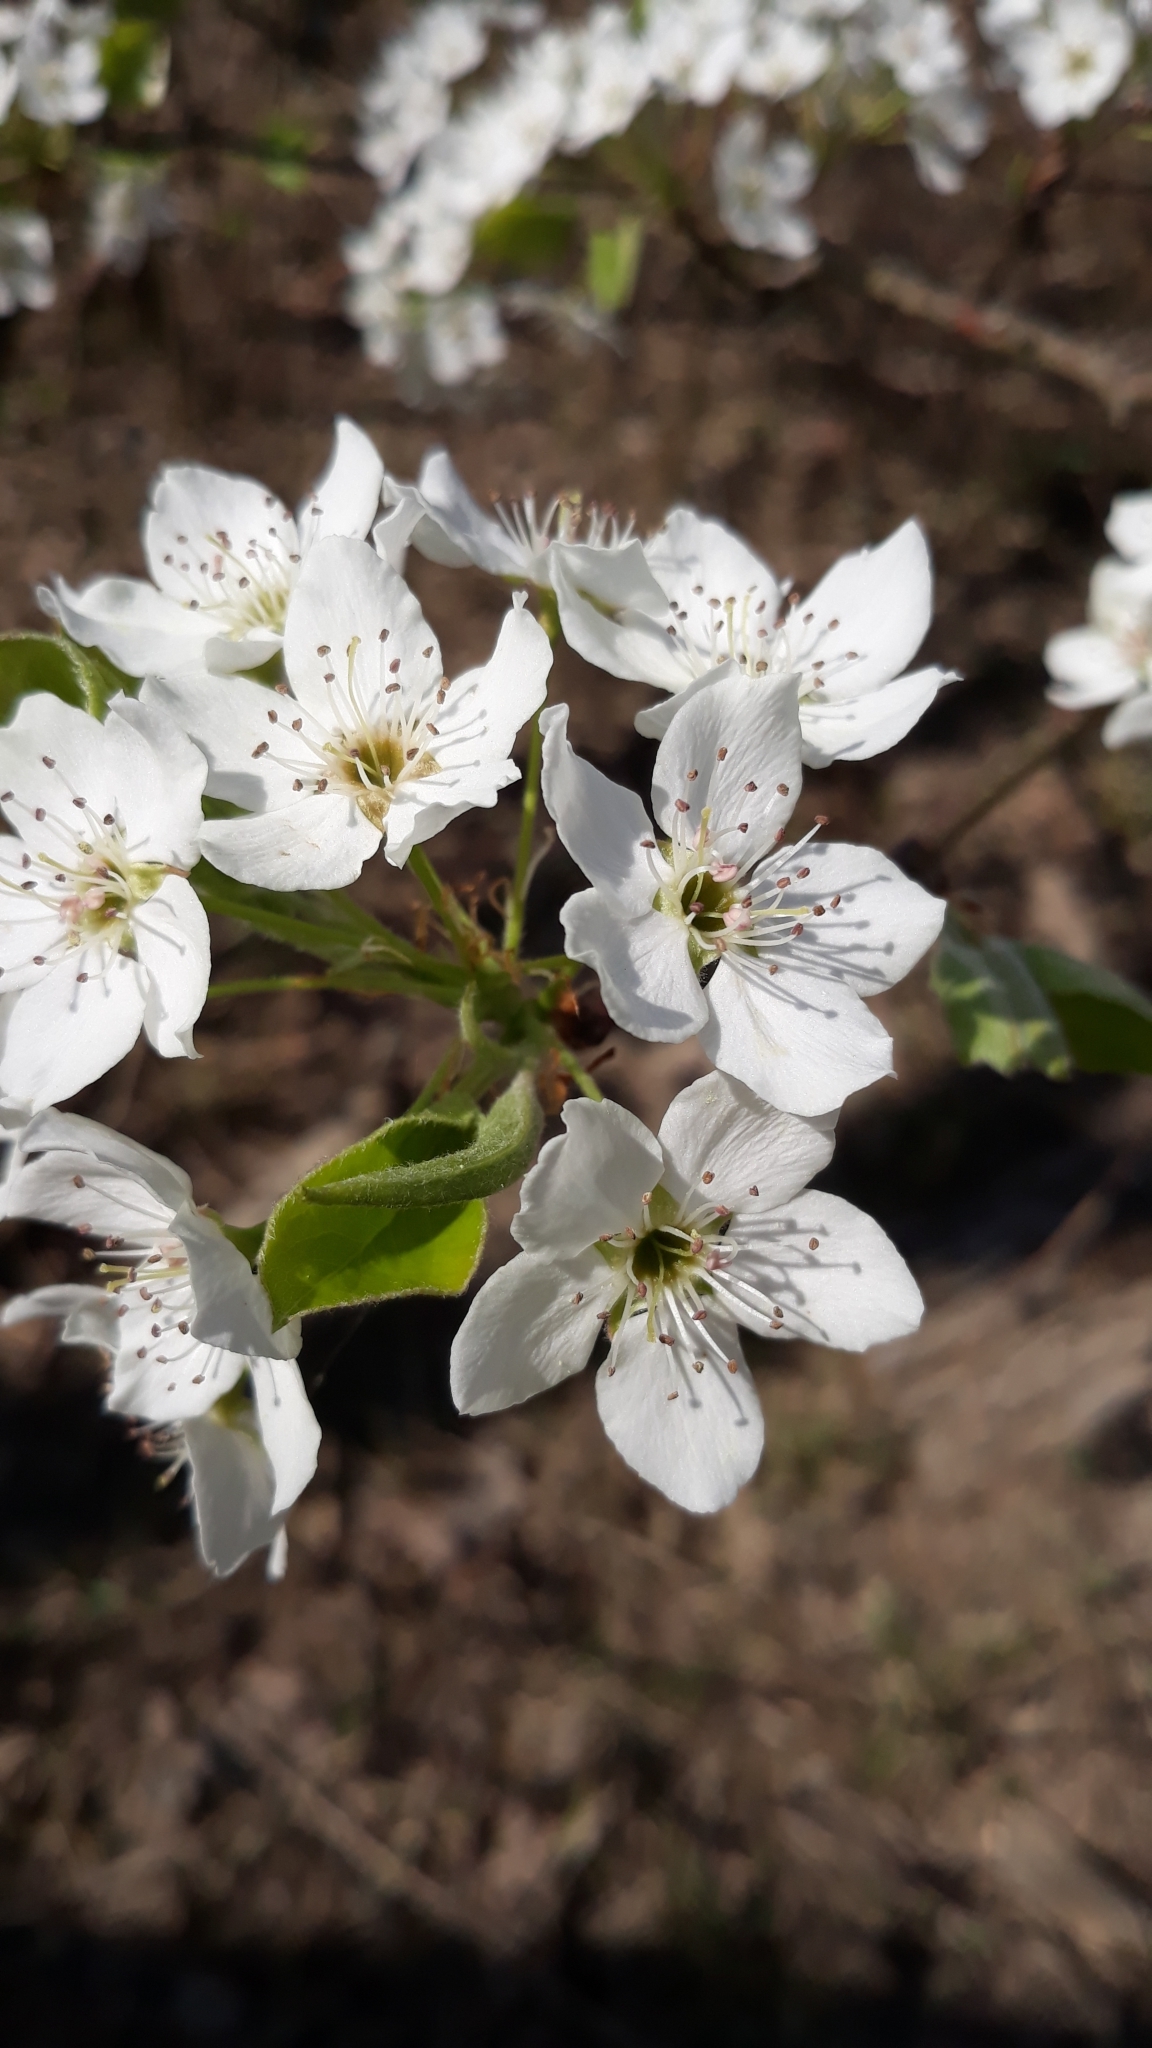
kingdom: Plantae
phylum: Tracheophyta
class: Magnoliopsida
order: Rosales
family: Rosaceae
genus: Pyrus
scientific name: Pyrus calleryana
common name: Callery pear
